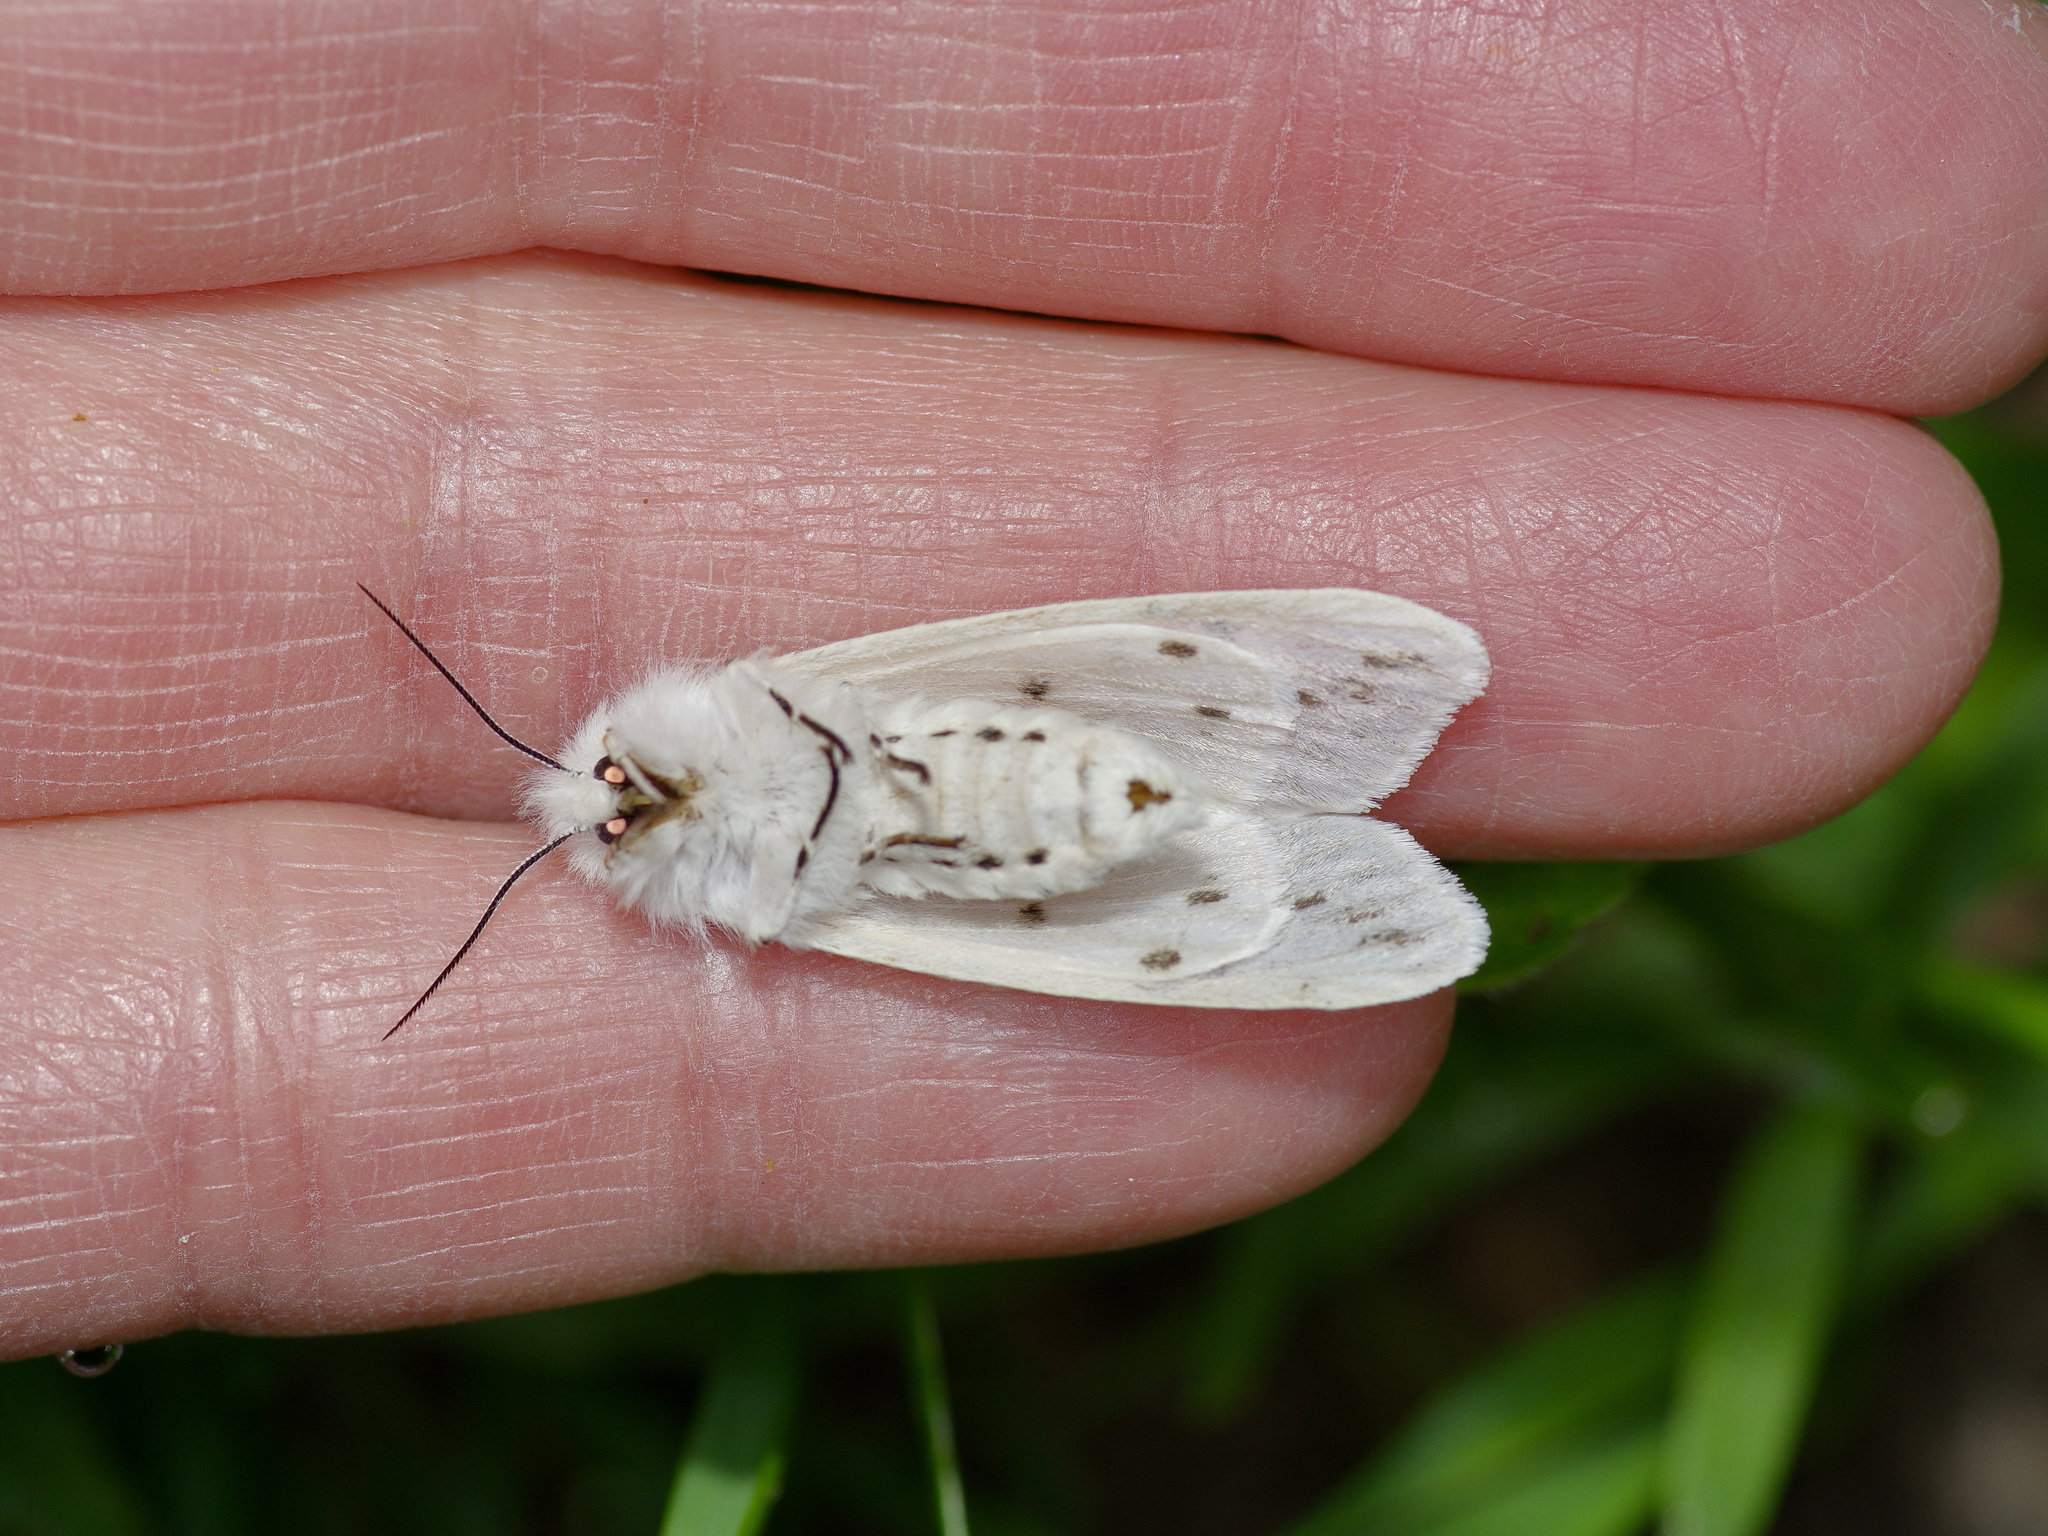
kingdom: Animalia
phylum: Arthropoda
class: Insecta
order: Lepidoptera
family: Erebidae
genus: Spilosoma
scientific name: Spilosoma dubia
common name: Dubious tiger moth
